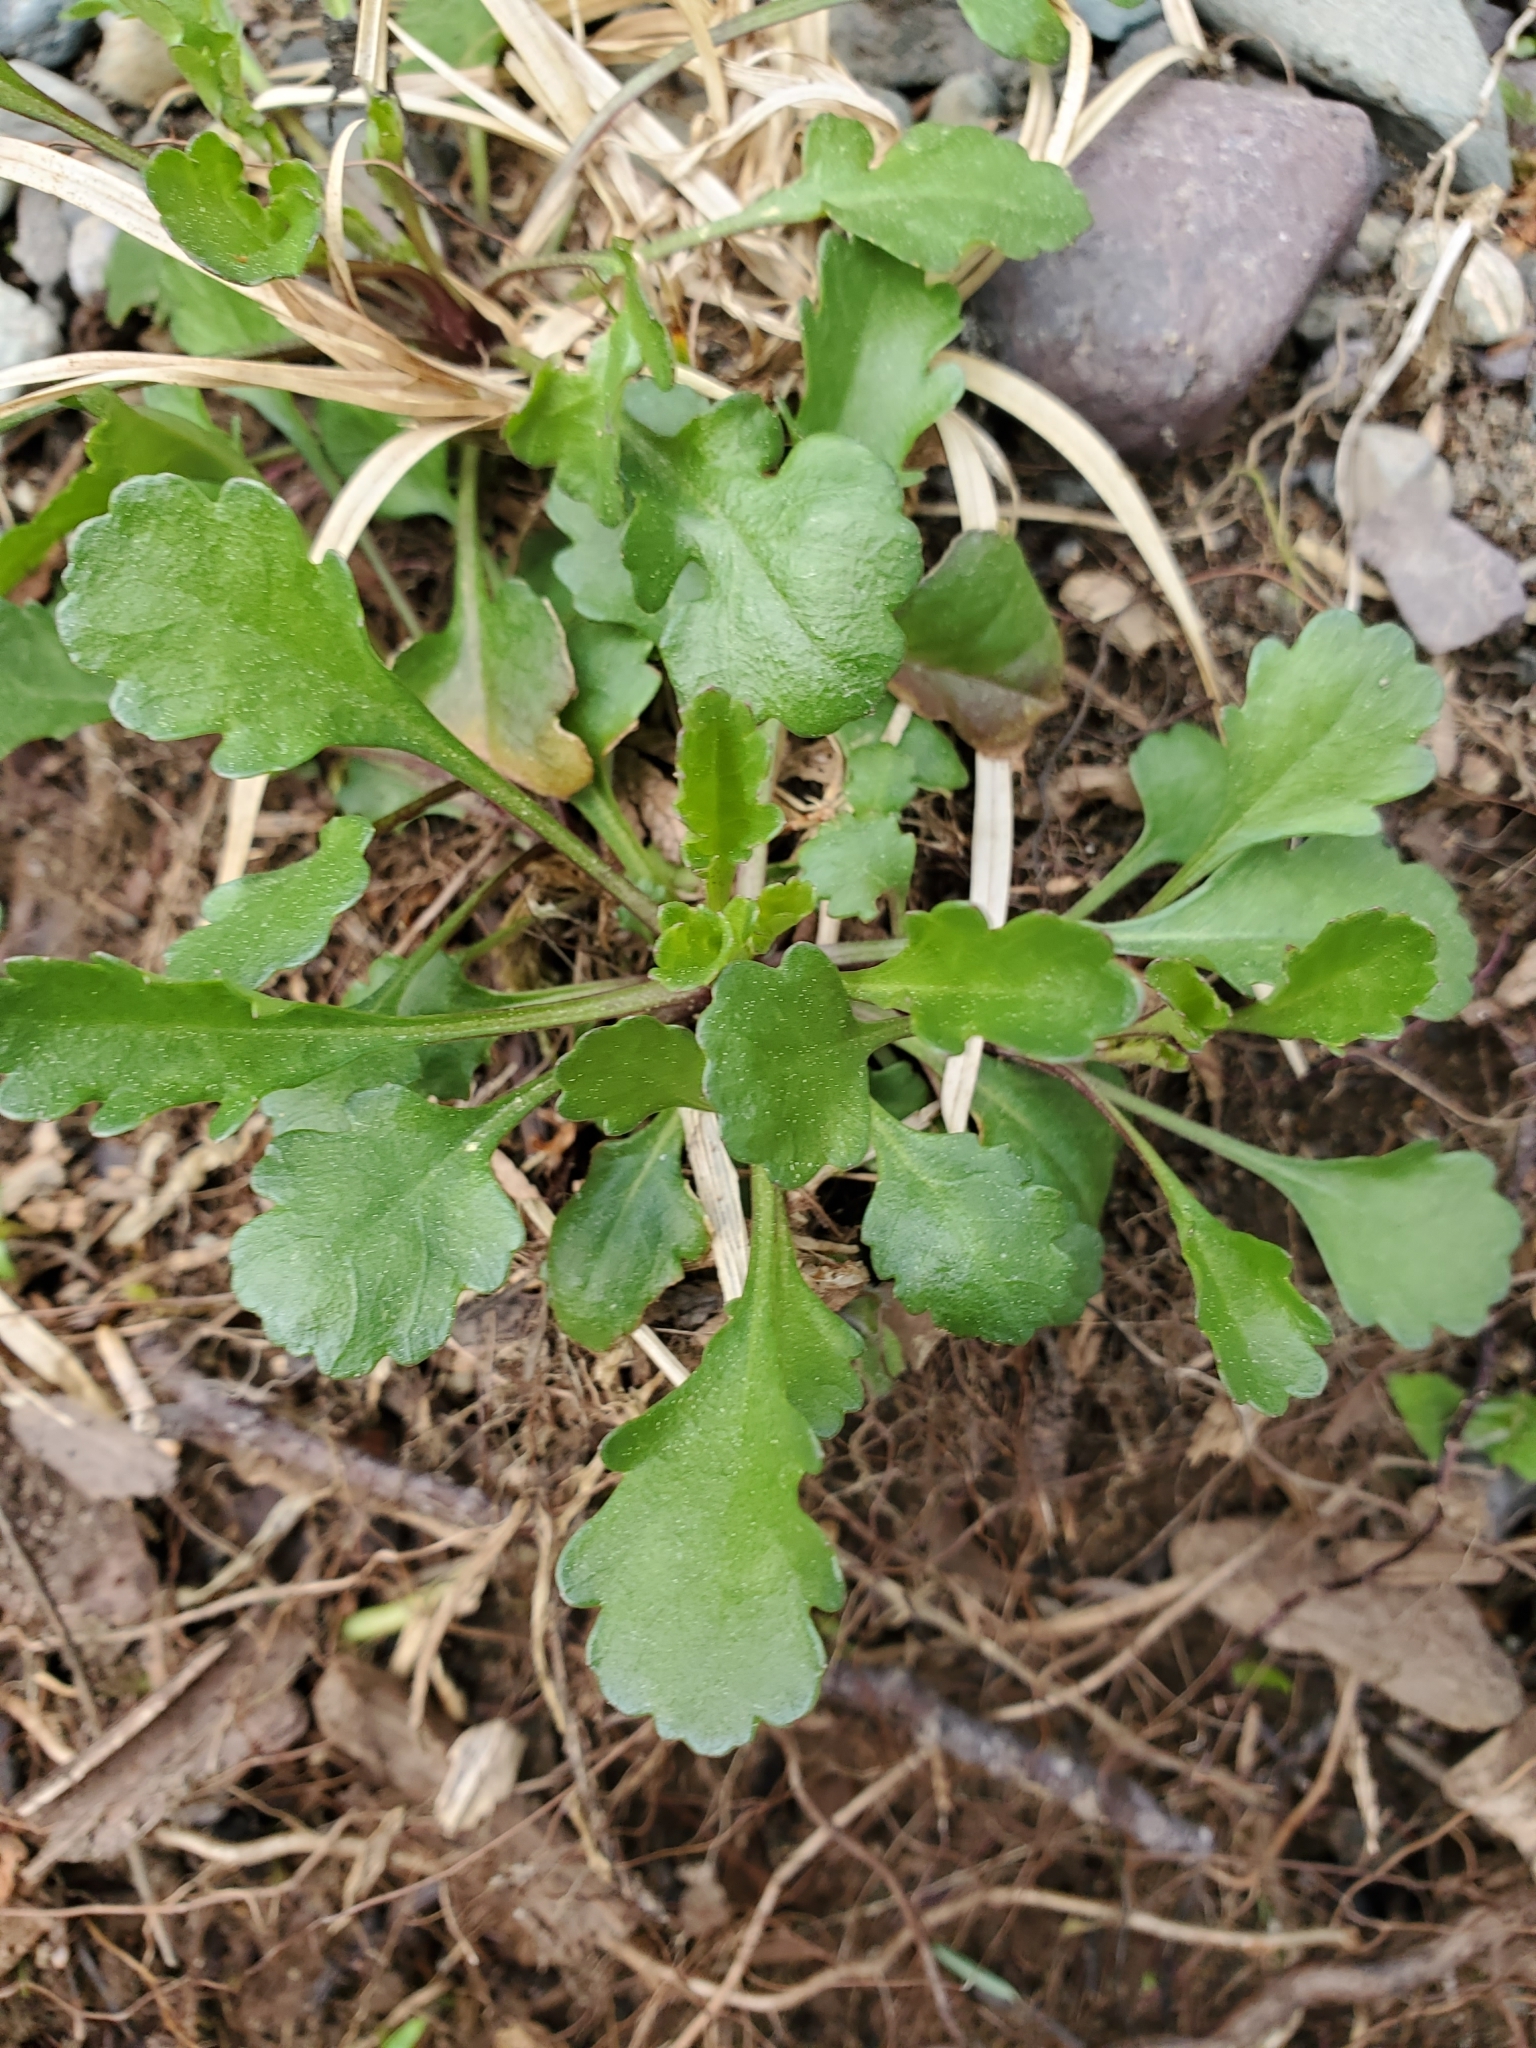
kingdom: Plantae
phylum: Tracheophyta
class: Magnoliopsida
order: Asterales
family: Asteraceae
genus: Leucanthemum
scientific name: Leucanthemum vulgare
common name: Oxeye daisy
